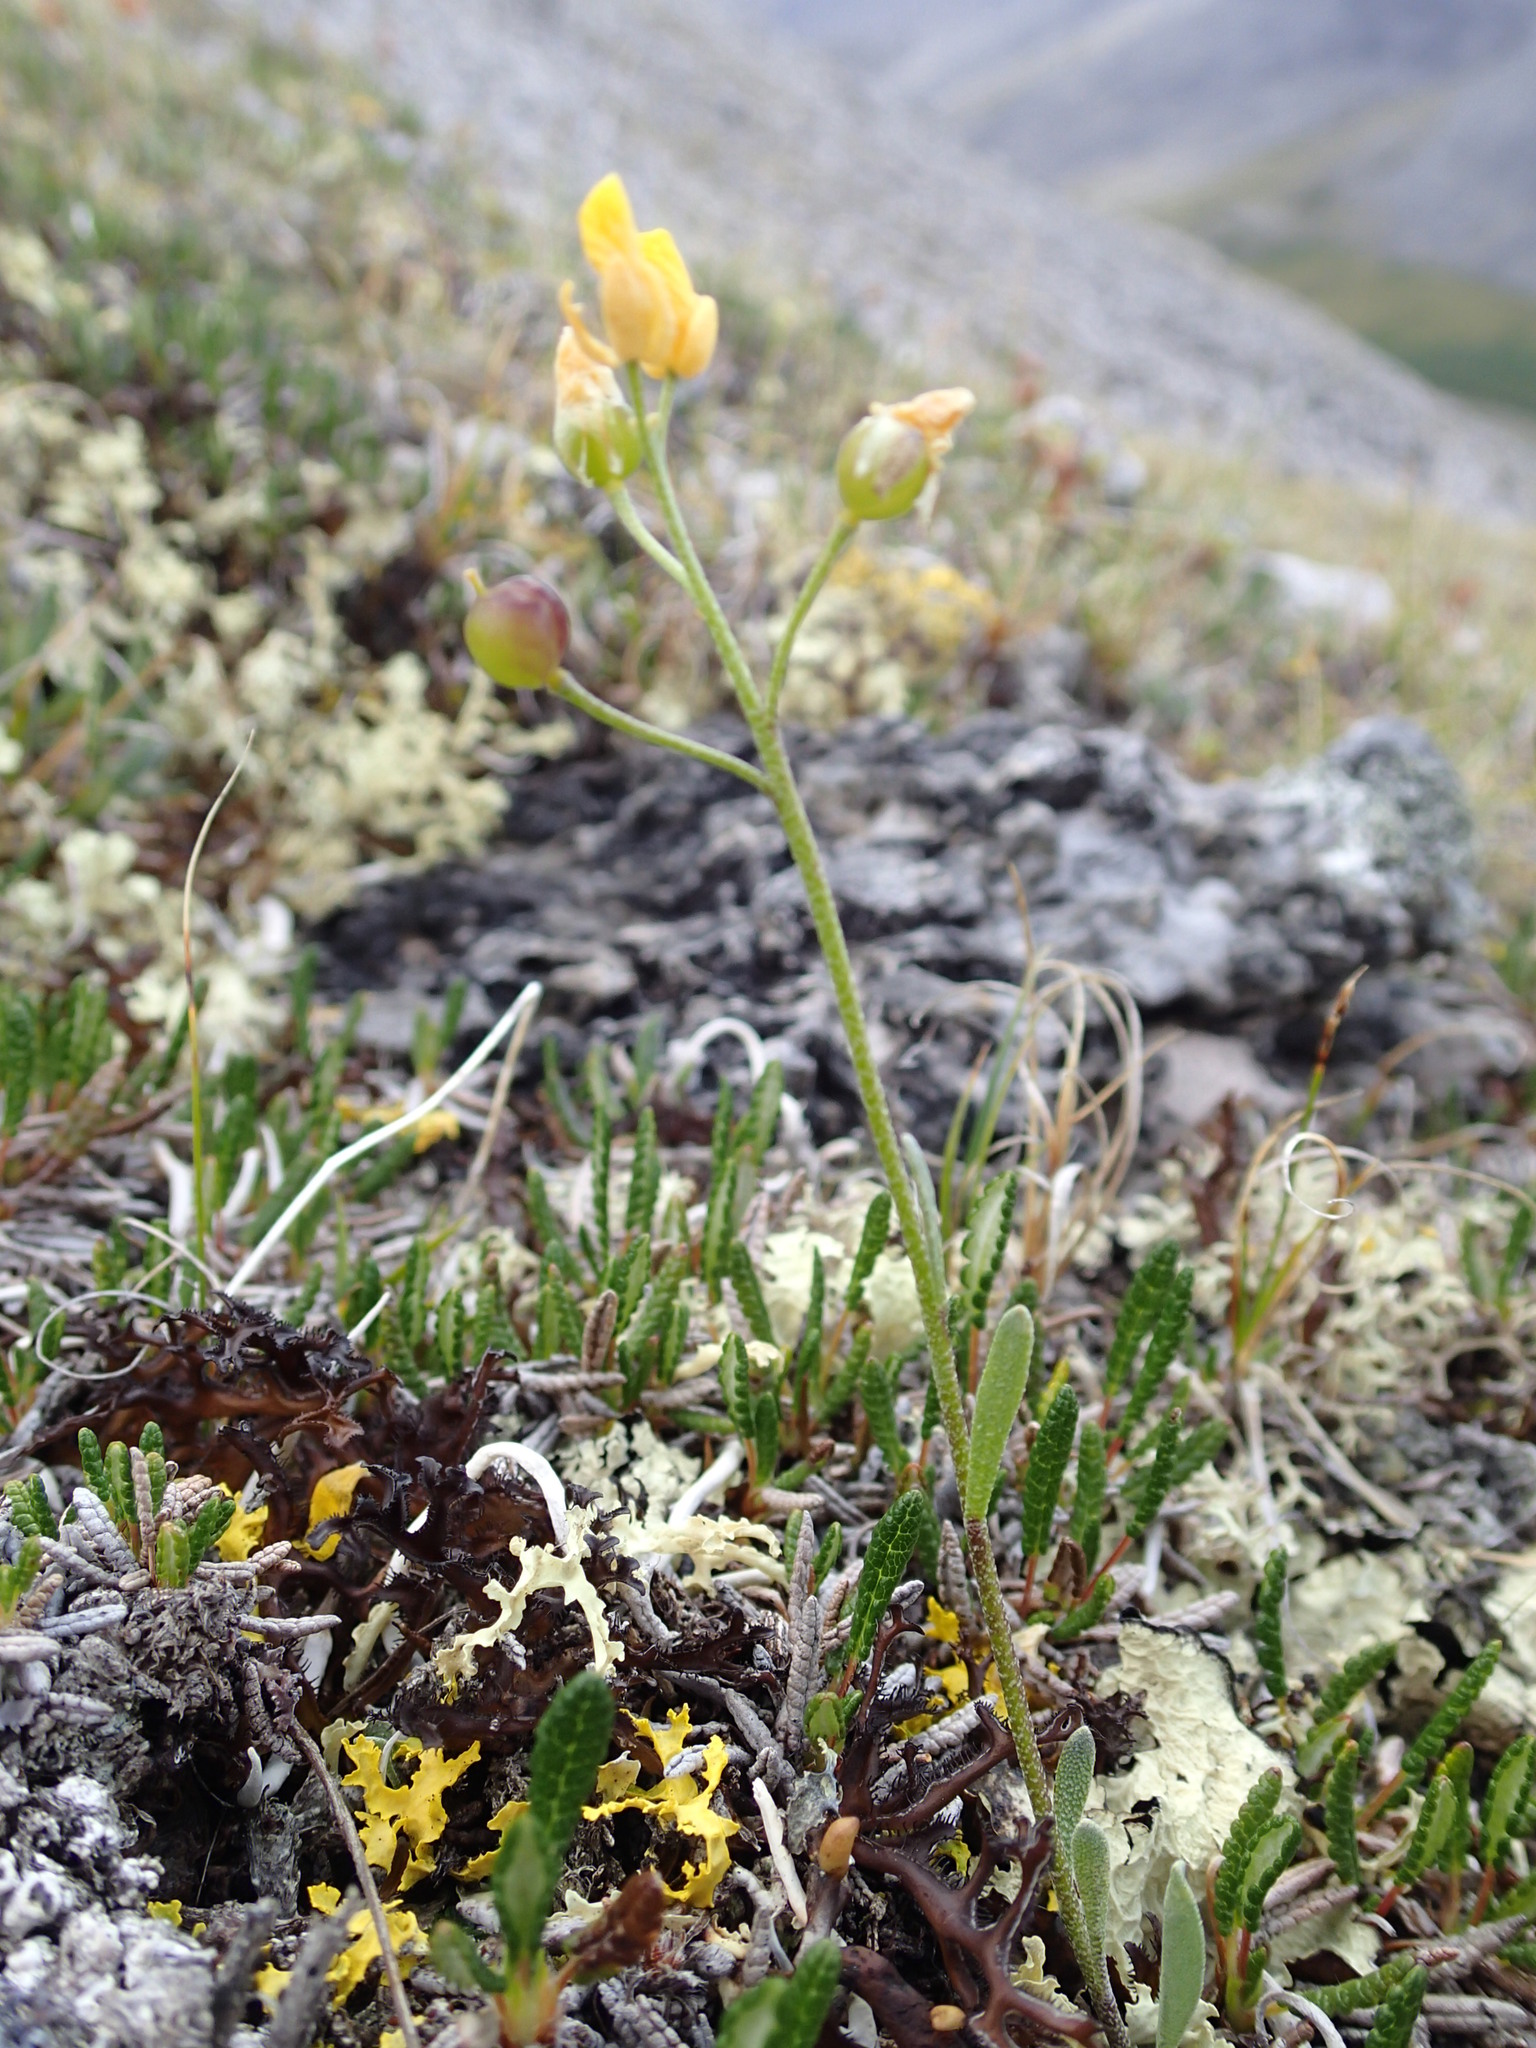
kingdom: Plantae
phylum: Tracheophyta
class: Magnoliopsida
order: Brassicales
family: Brassicaceae
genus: Physaria
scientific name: Physaria calderi
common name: Calder's bladderpod
